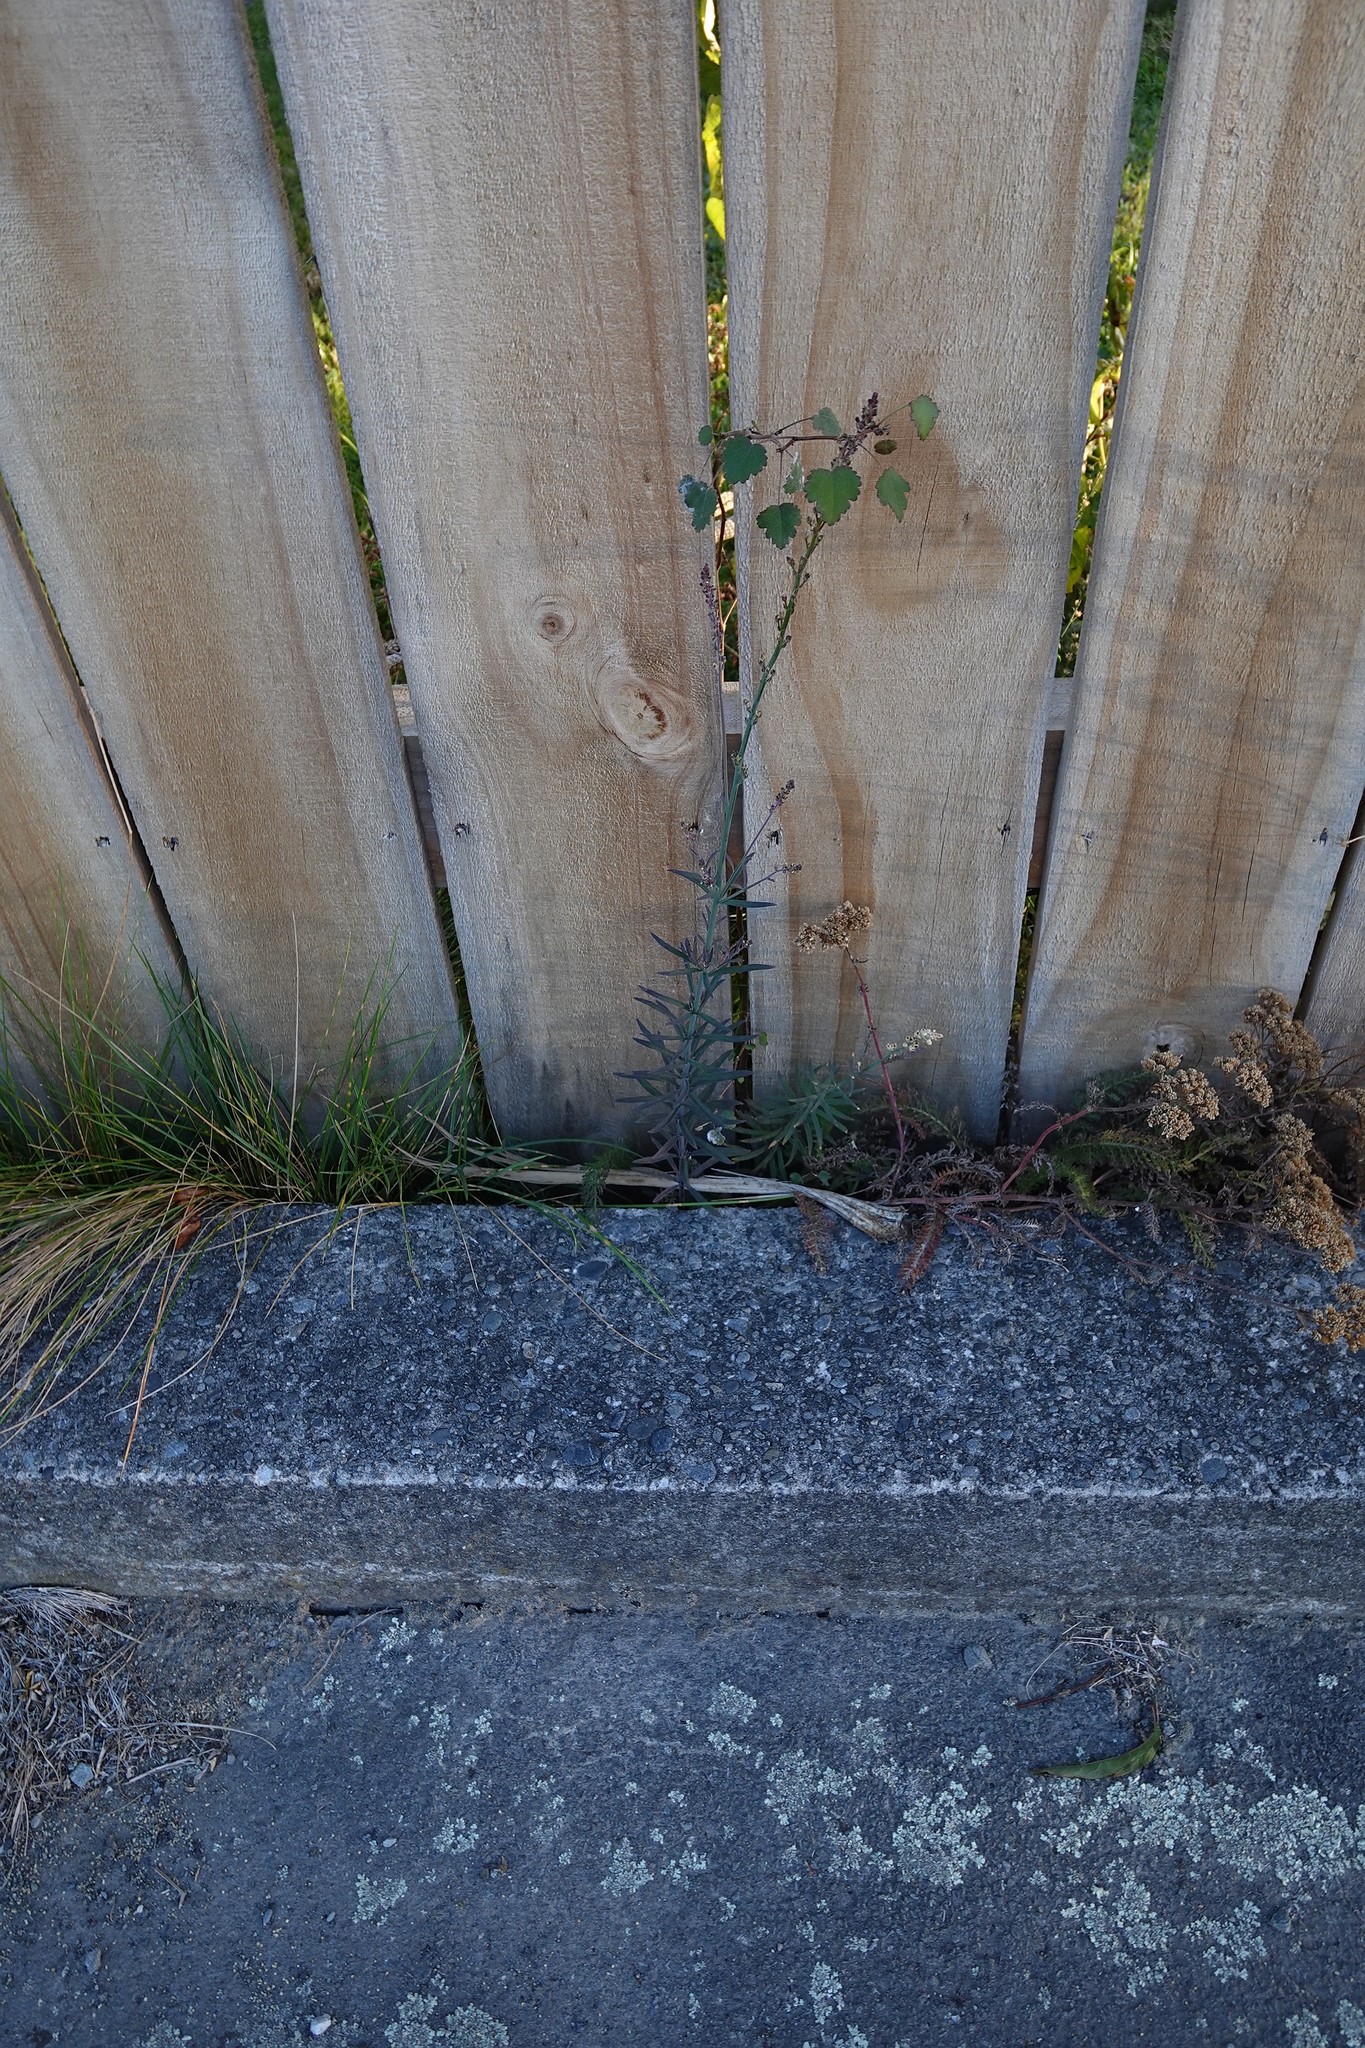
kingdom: Plantae
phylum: Tracheophyta
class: Magnoliopsida
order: Lamiales
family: Plantaginaceae
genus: Linaria
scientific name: Linaria purpurea
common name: Purple toadflax
